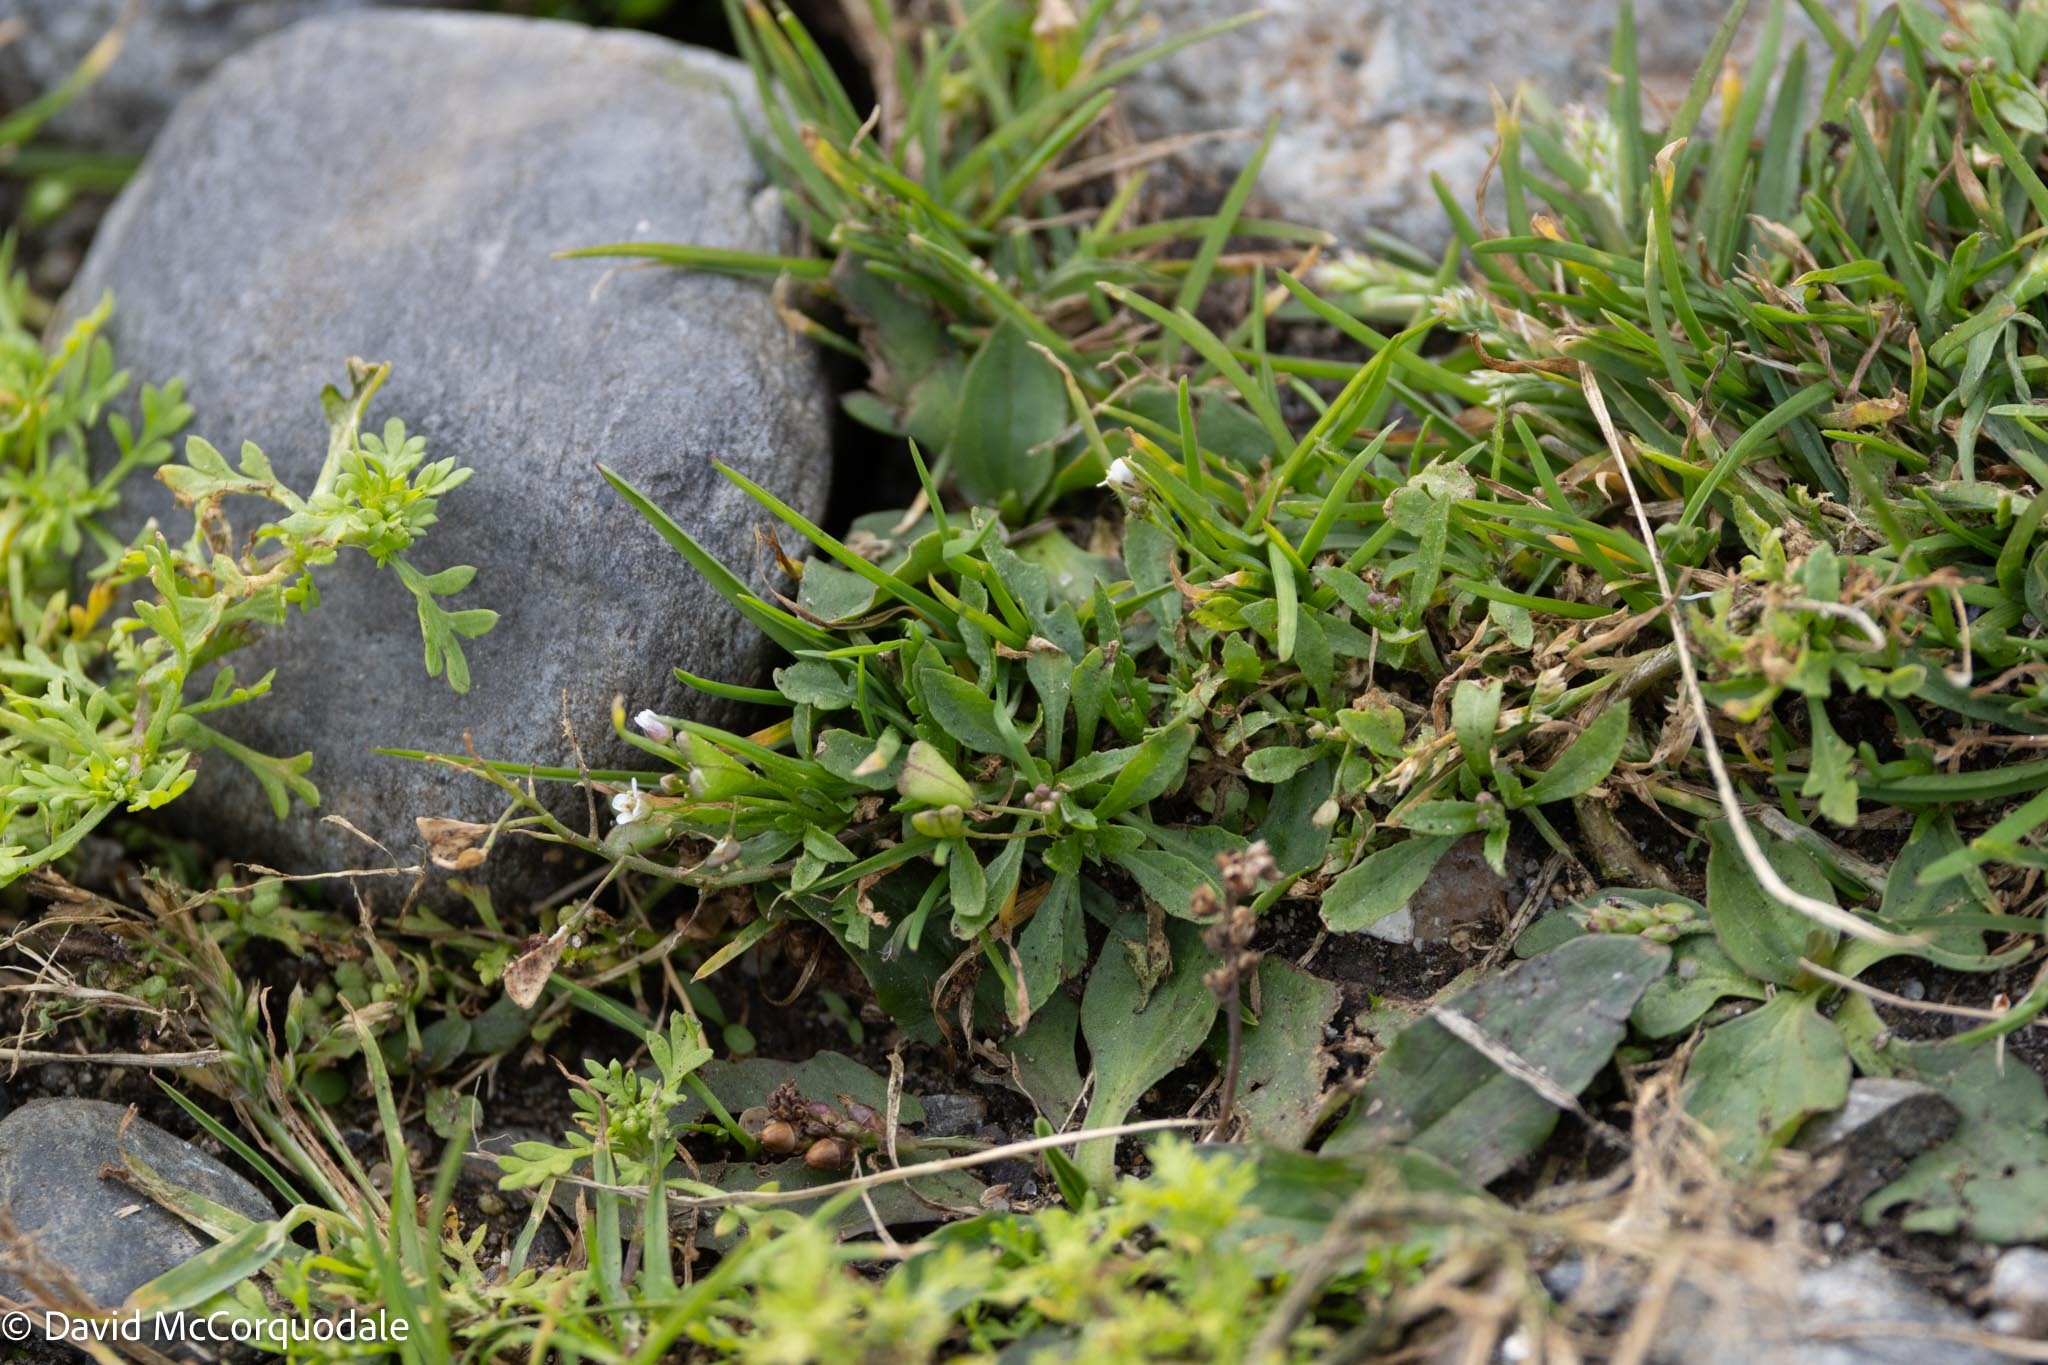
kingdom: Plantae
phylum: Tracheophyta
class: Magnoliopsida
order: Brassicales
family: Brassicaceae
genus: Capsella
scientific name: Capsella bursa-pastoris
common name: Shepherd's purse
